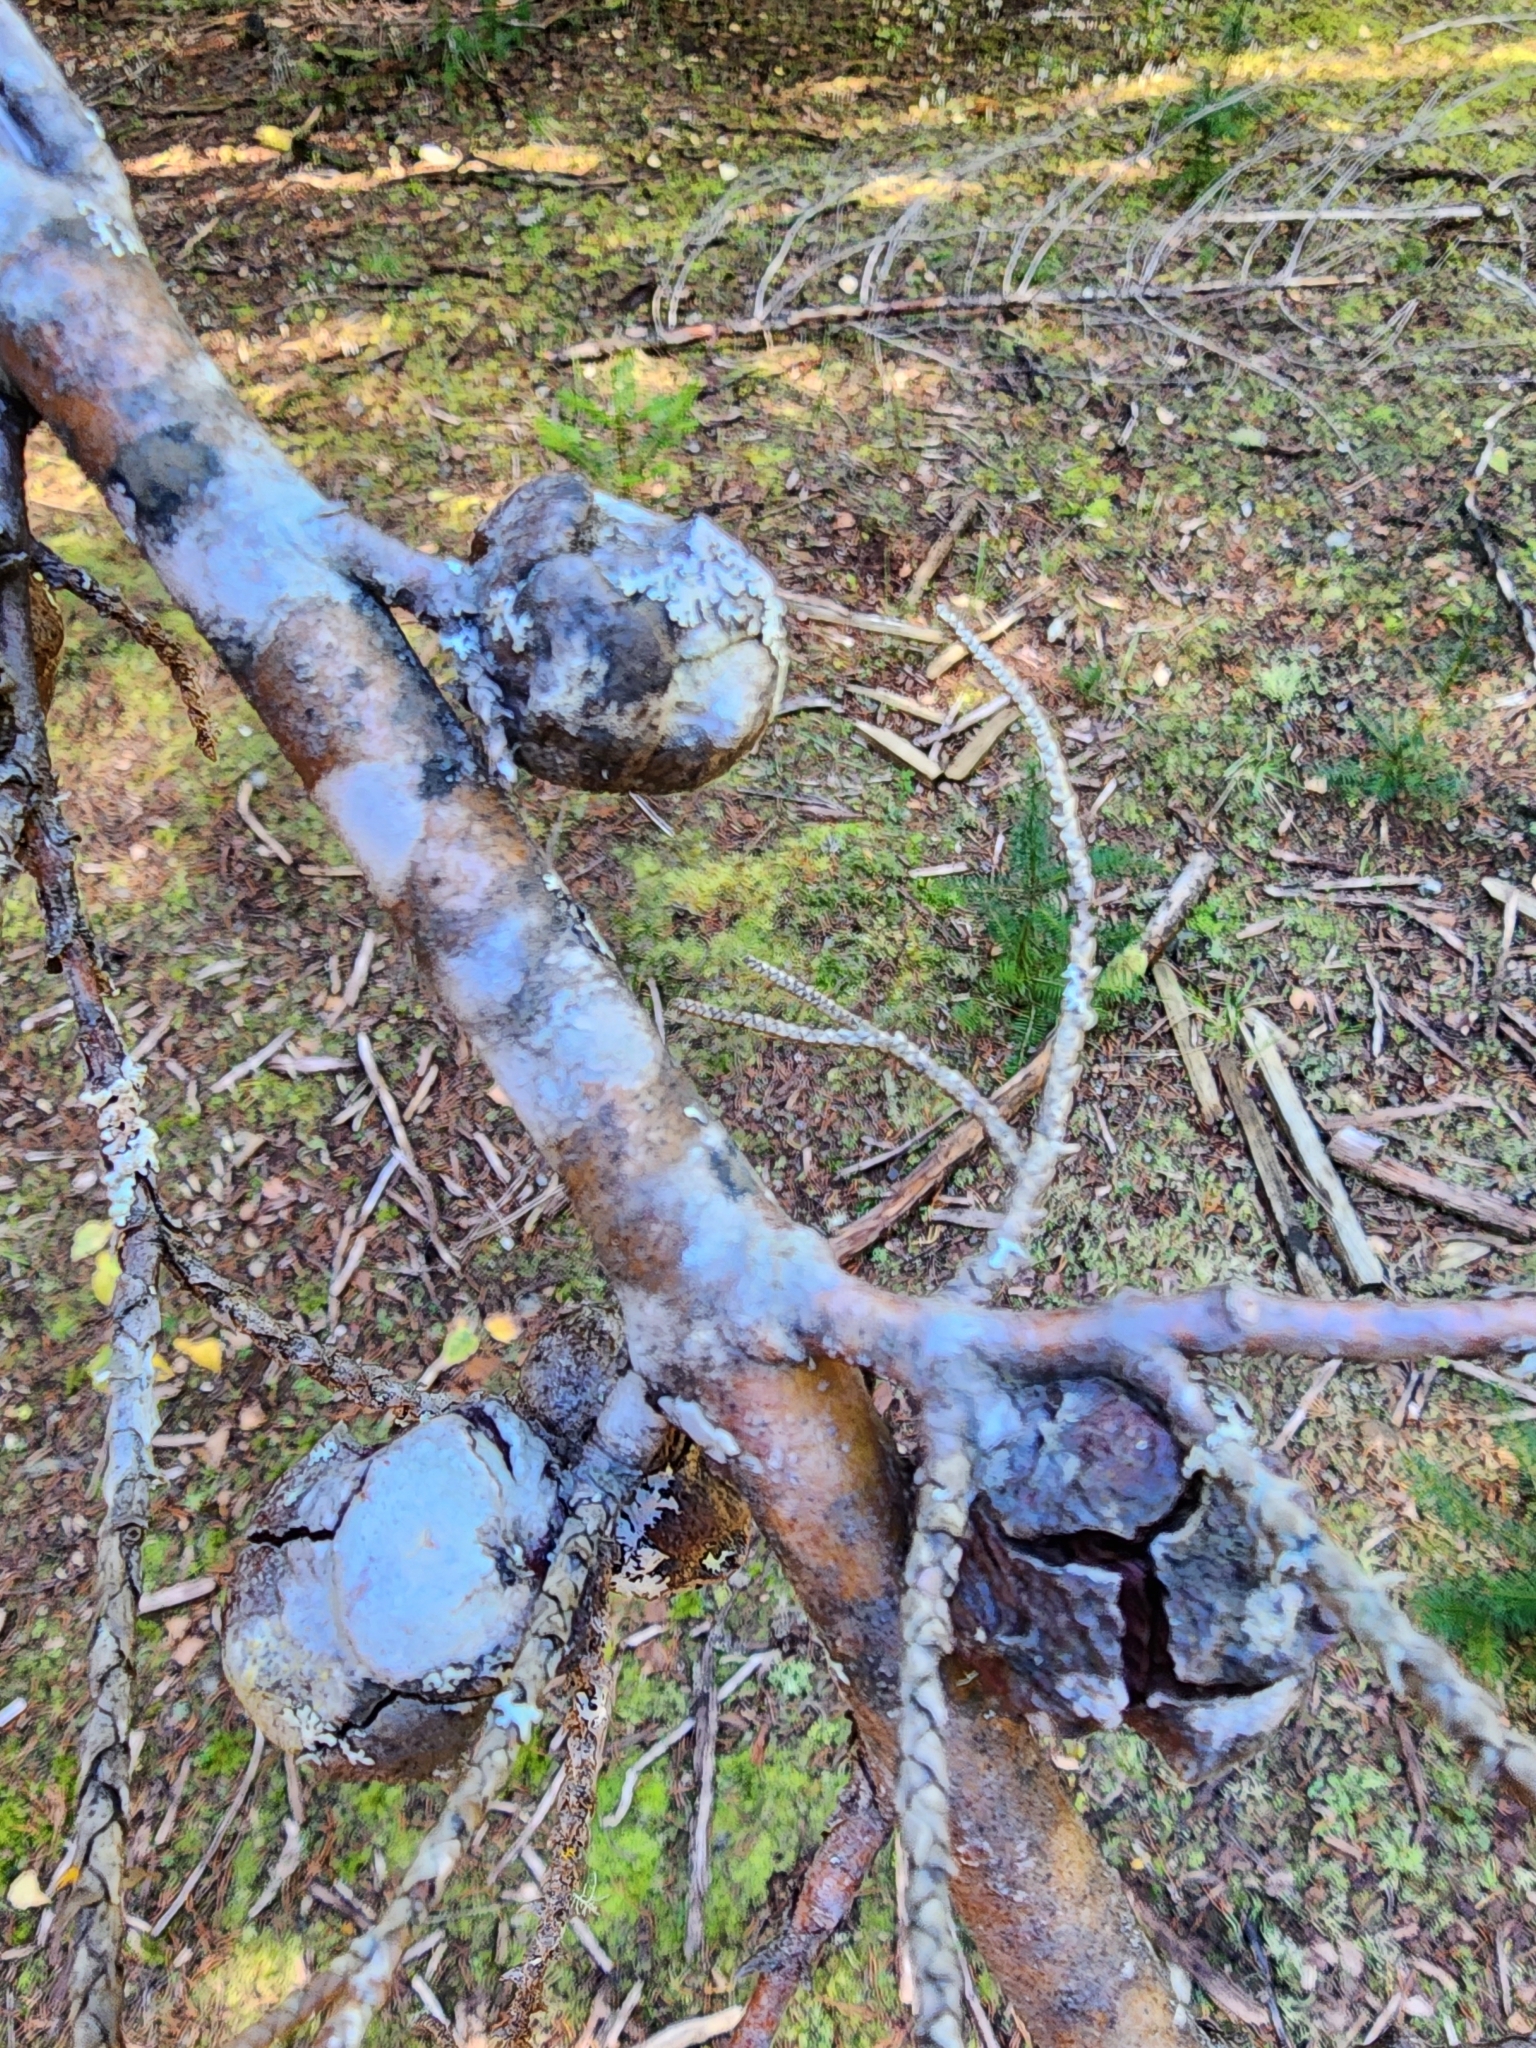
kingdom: Plantae
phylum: Tracheophyta
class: Pinopsida
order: Pinales
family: Cupressaceae
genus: Cupressus
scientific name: Cupressus macrocarpa
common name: Monterey cypress
